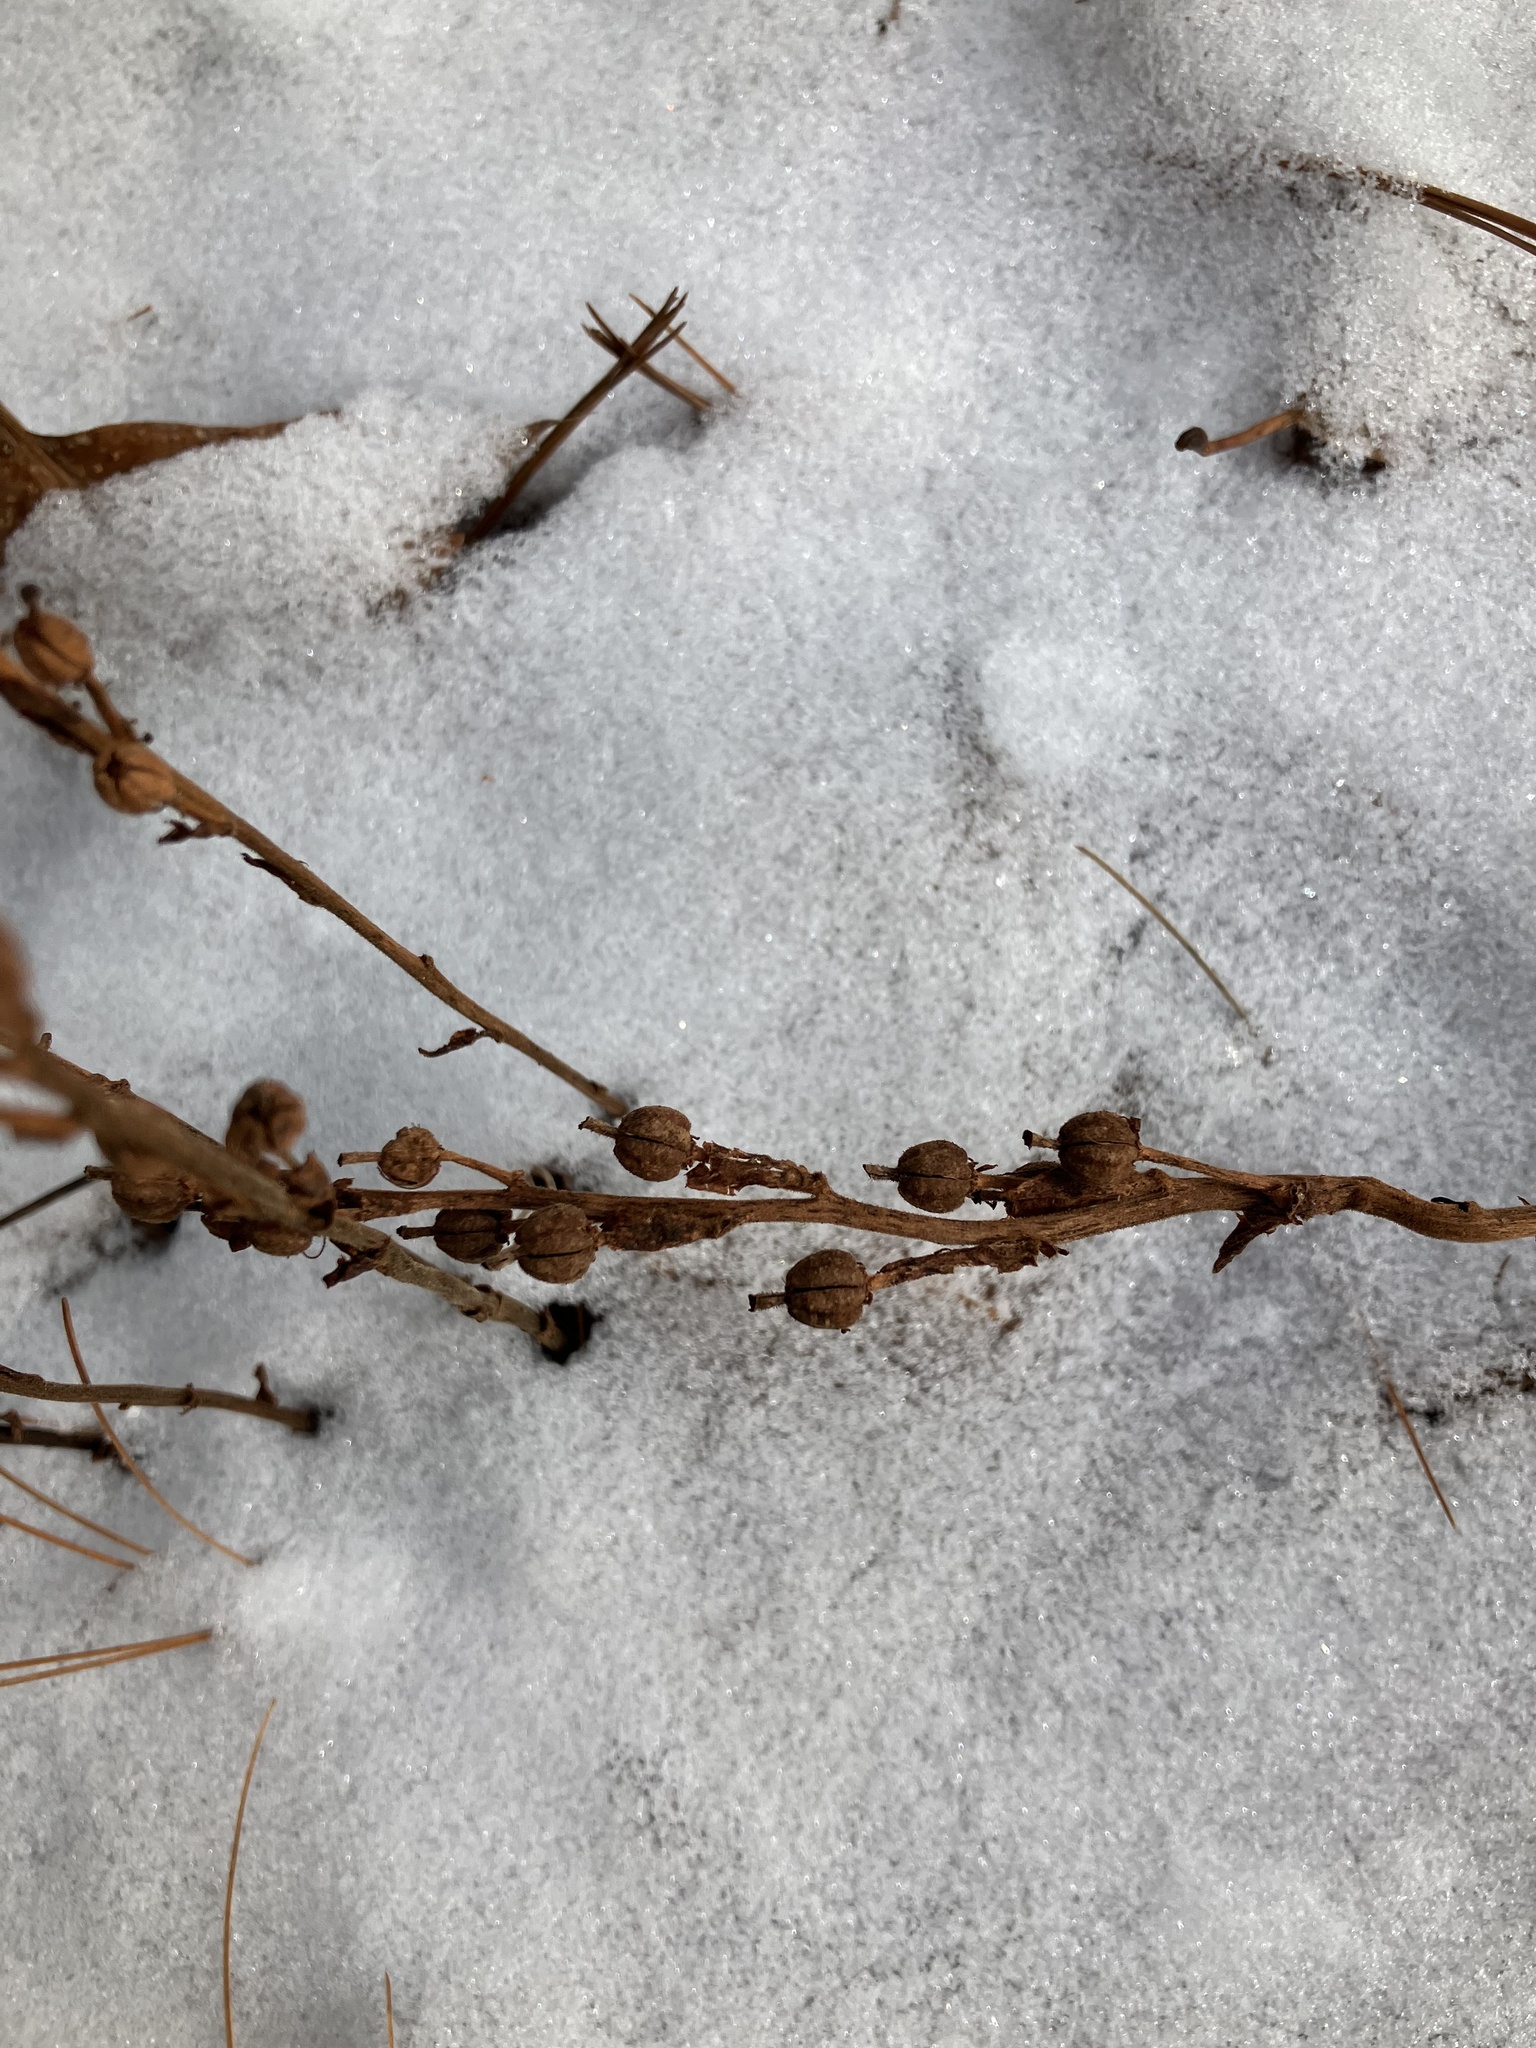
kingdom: Plantae
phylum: Tracheophyta
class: Magnoliopsida
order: Ericales
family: Ericaceae
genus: Hypopitys
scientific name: Hypopitys monotropa
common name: Yellow bird's-nest
